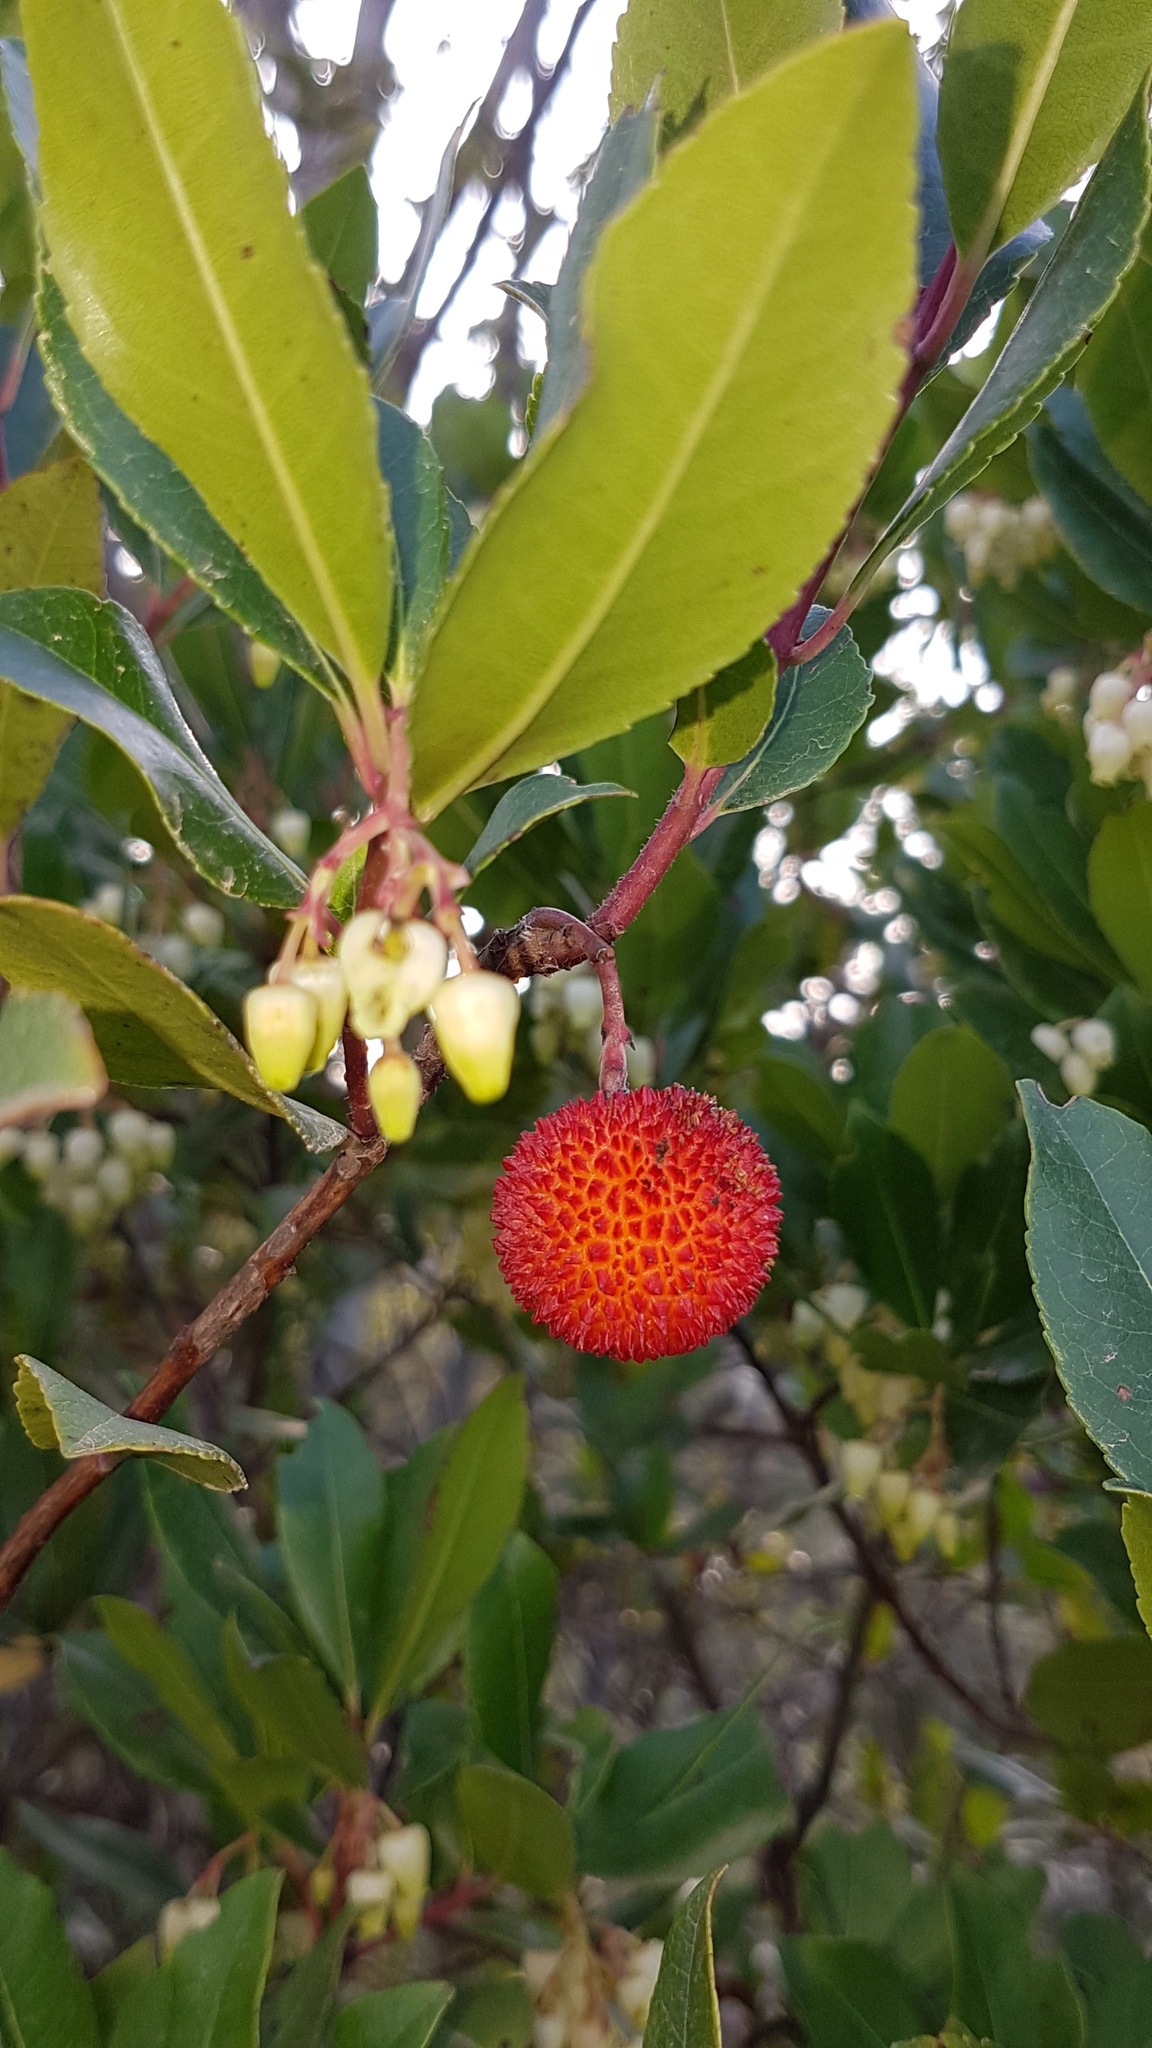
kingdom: Plantae
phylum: Tracheophyta
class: Magnoliopsida
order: Ericales
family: Ericaceae
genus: Arbutus
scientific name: Arbutus unedo
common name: Strawberry-tree
